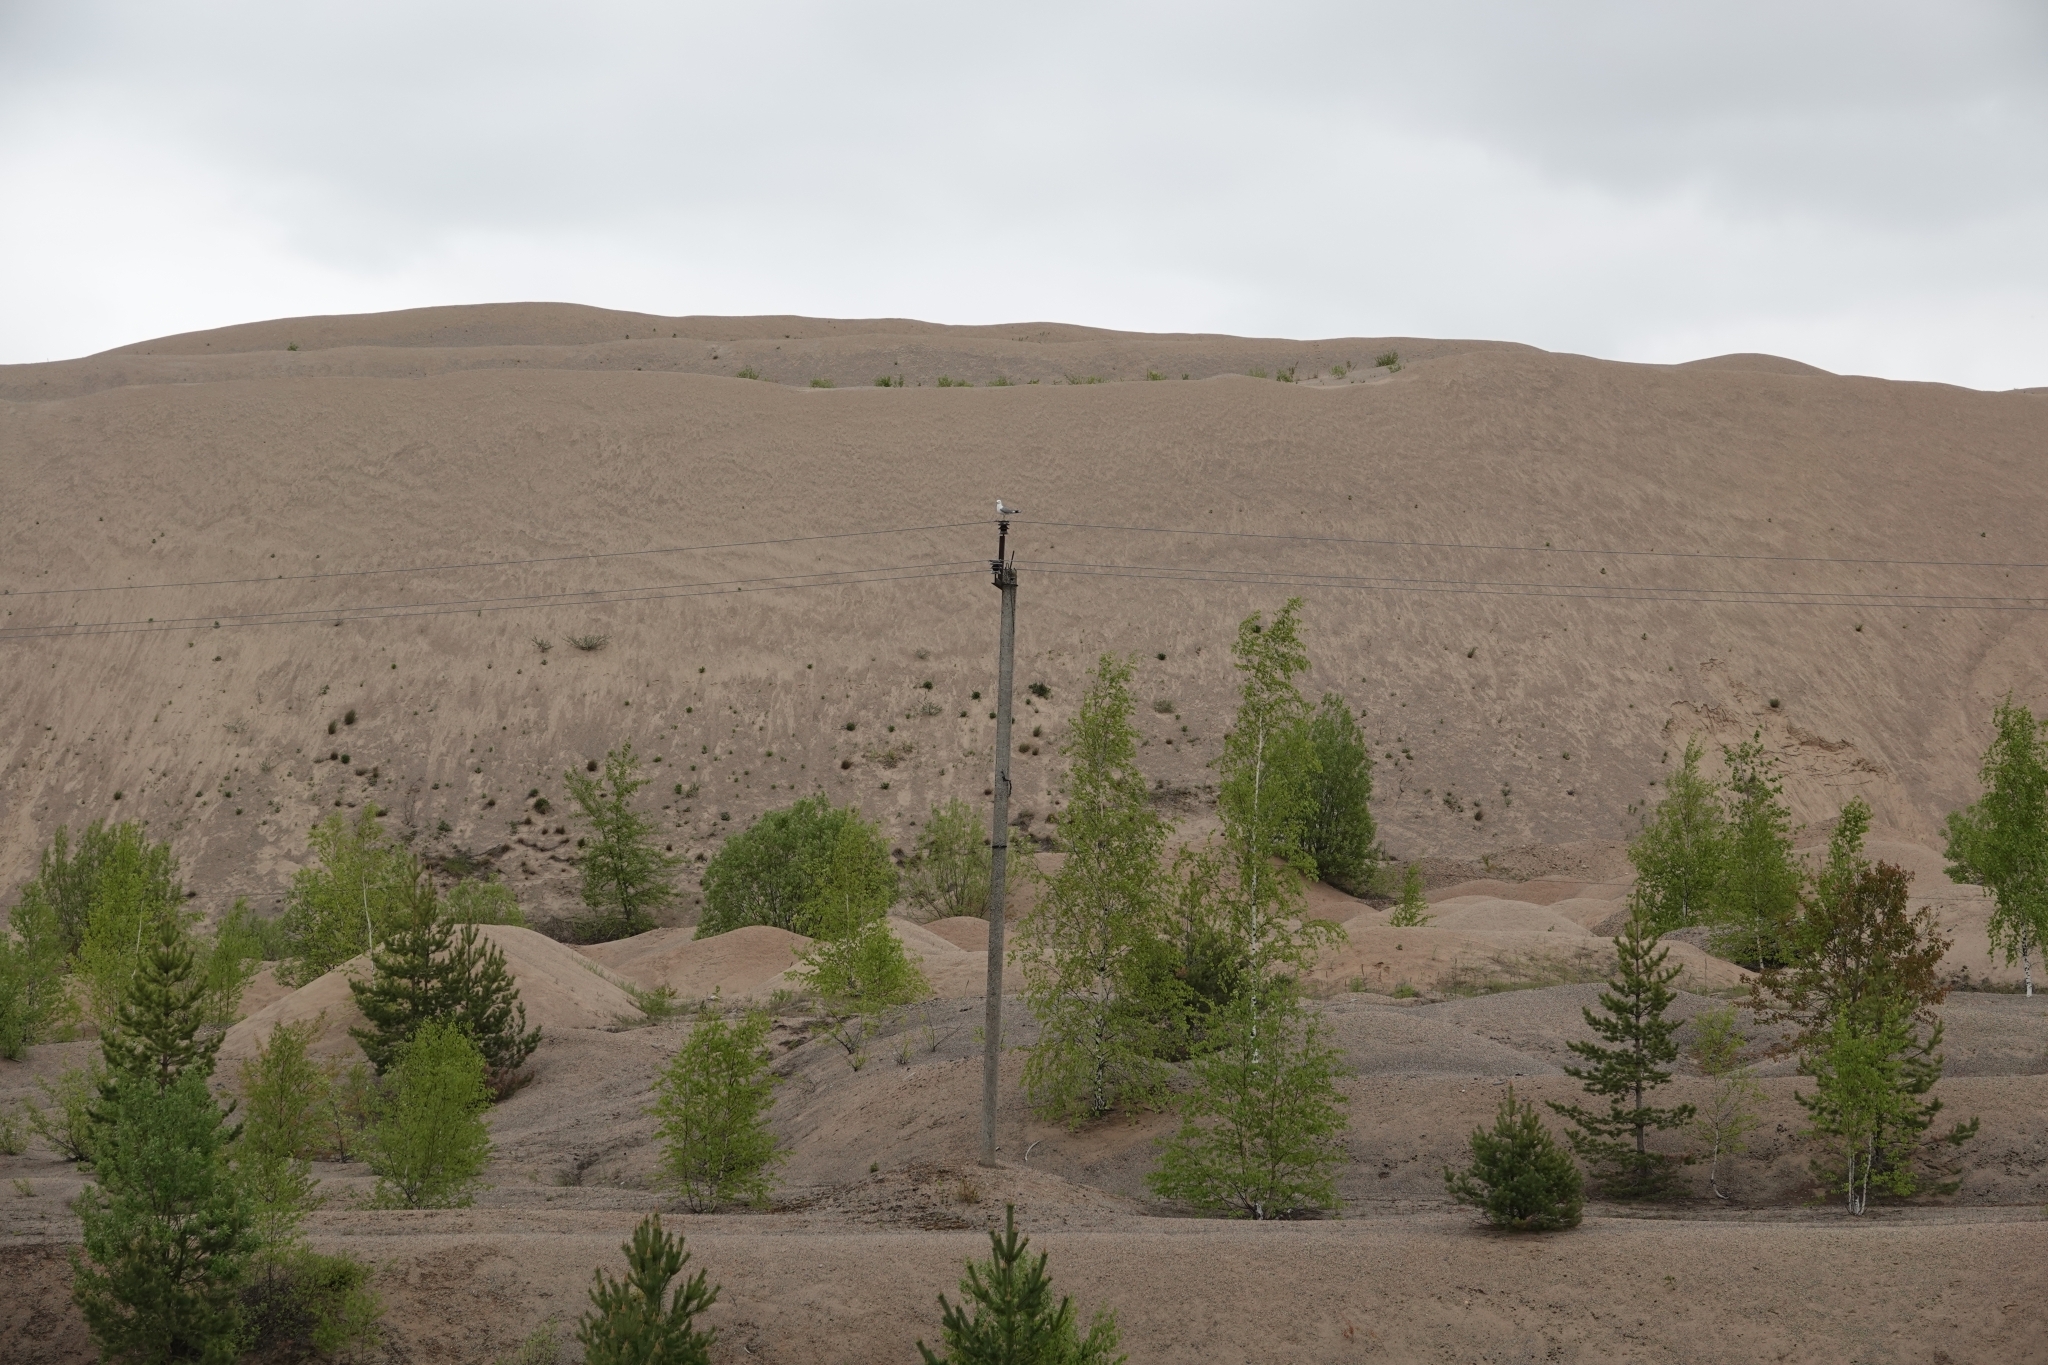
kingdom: Animalia
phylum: Chordata
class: Aves
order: Charadriiformes
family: Laridae
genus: Larus
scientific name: Larus canus
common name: Mew gull
